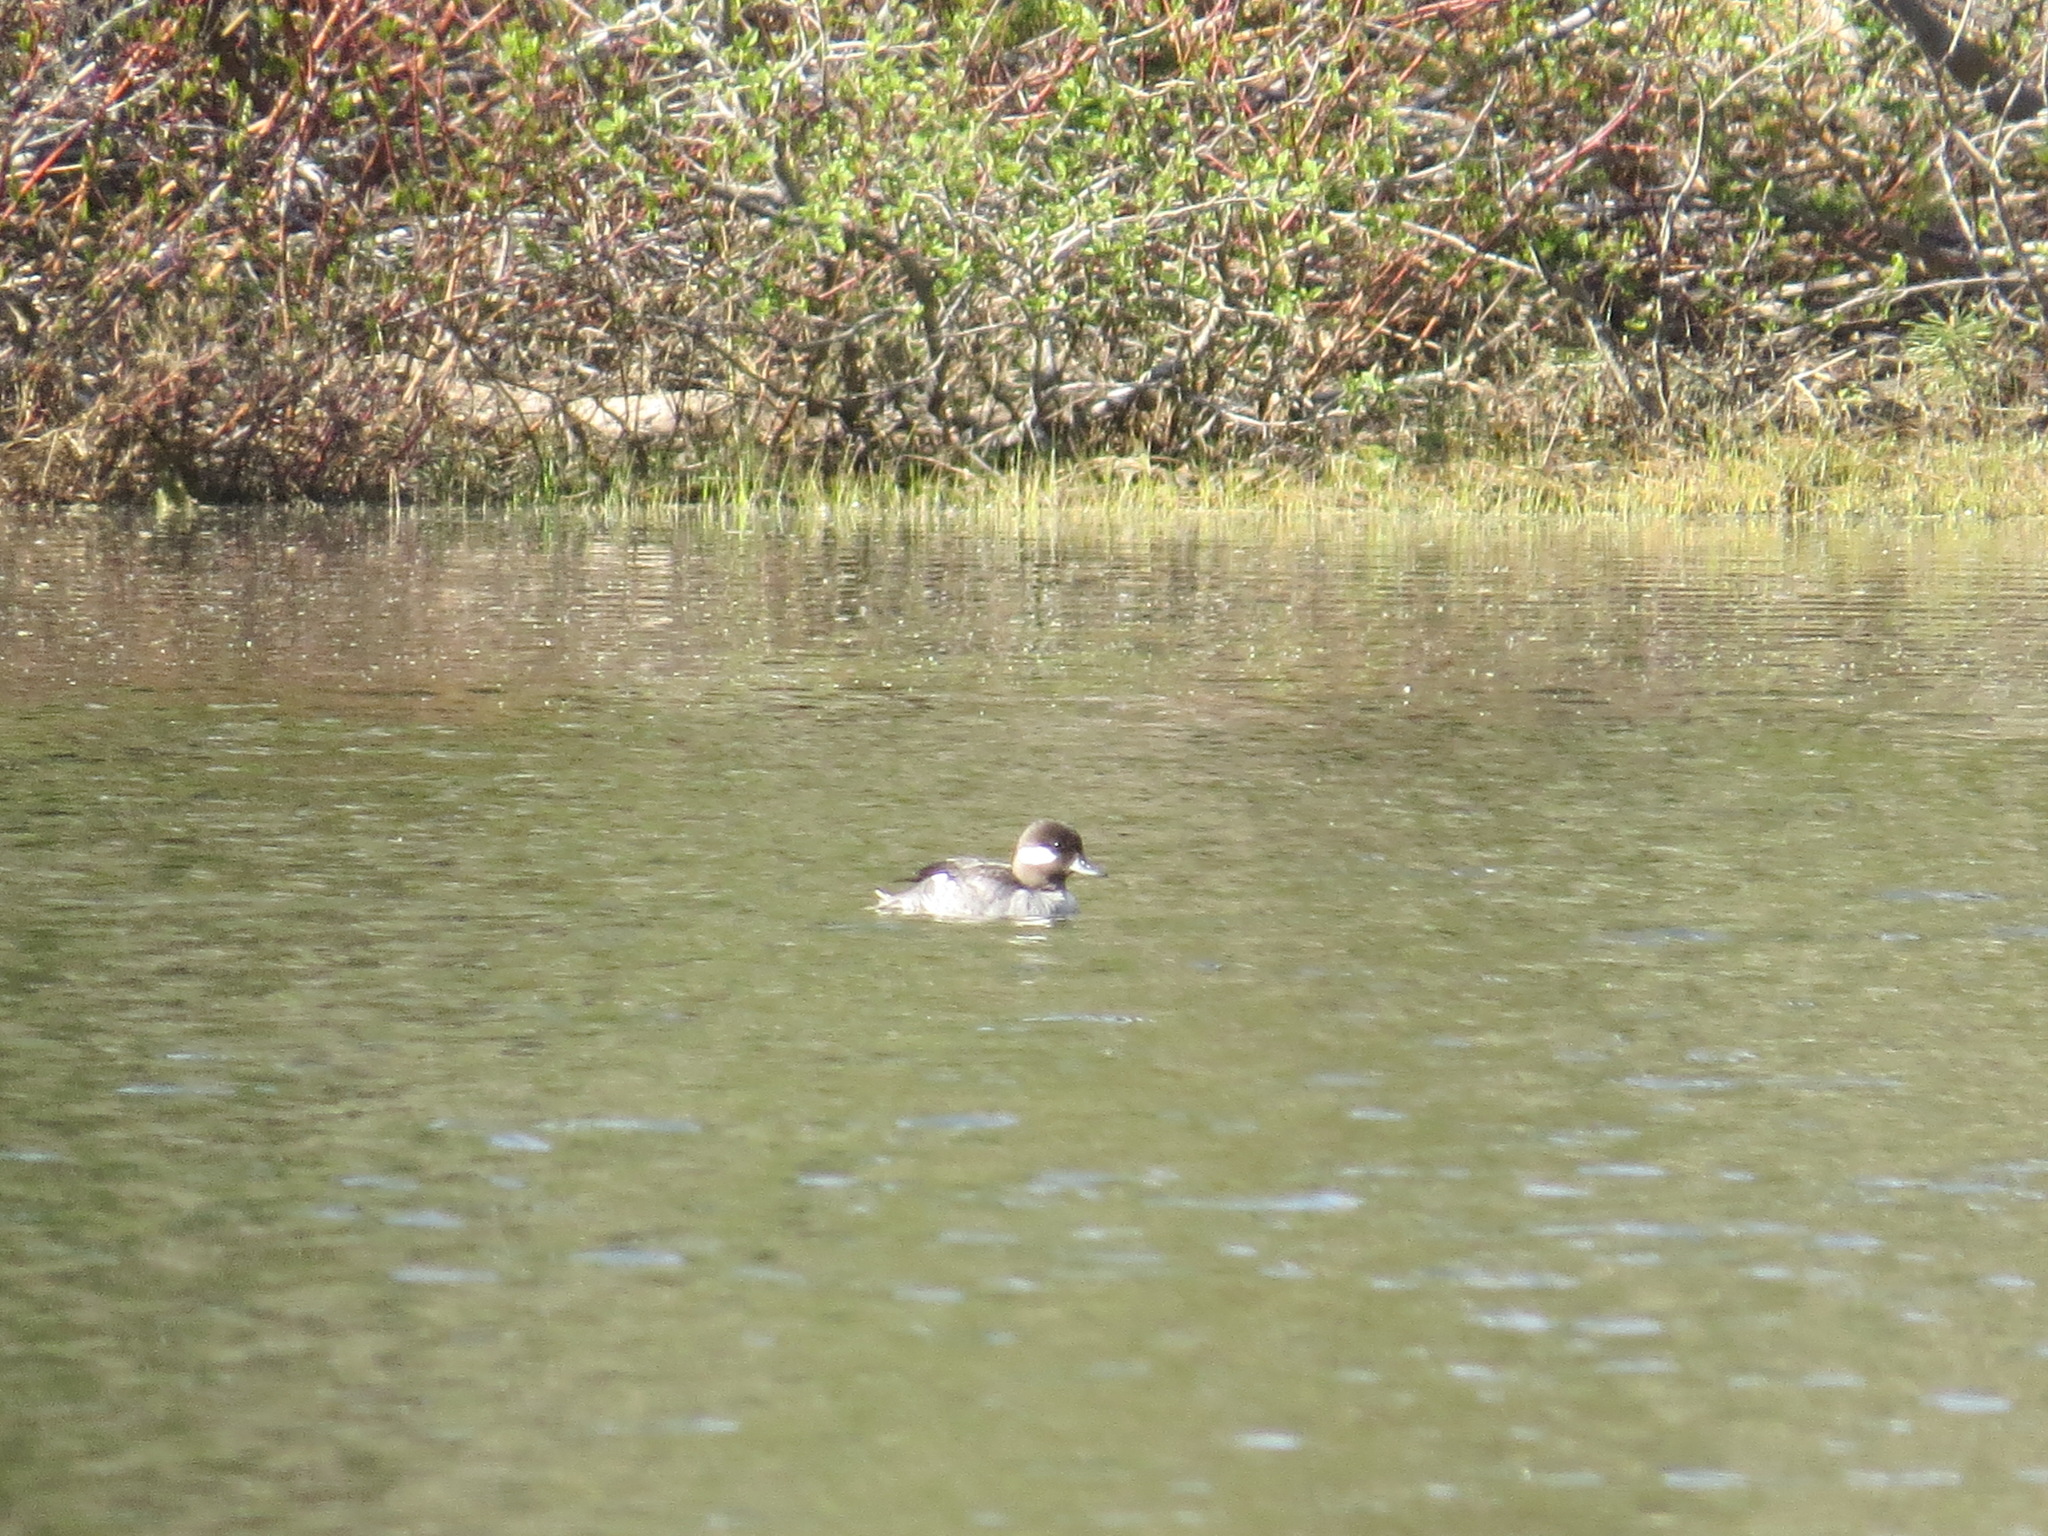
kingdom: Animalia
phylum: Chordata
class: Aves
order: Anseriformes
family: Anatidae
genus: Bucephala
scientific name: Bucephala albeola
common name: Bufflehead
